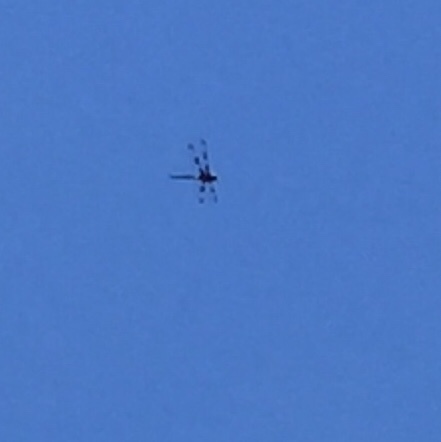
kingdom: Animalia
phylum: Arthropoda
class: Insecta
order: Odonata
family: Corduliidae
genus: Epitheca
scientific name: Epitheca princeps
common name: Prince baskettail
